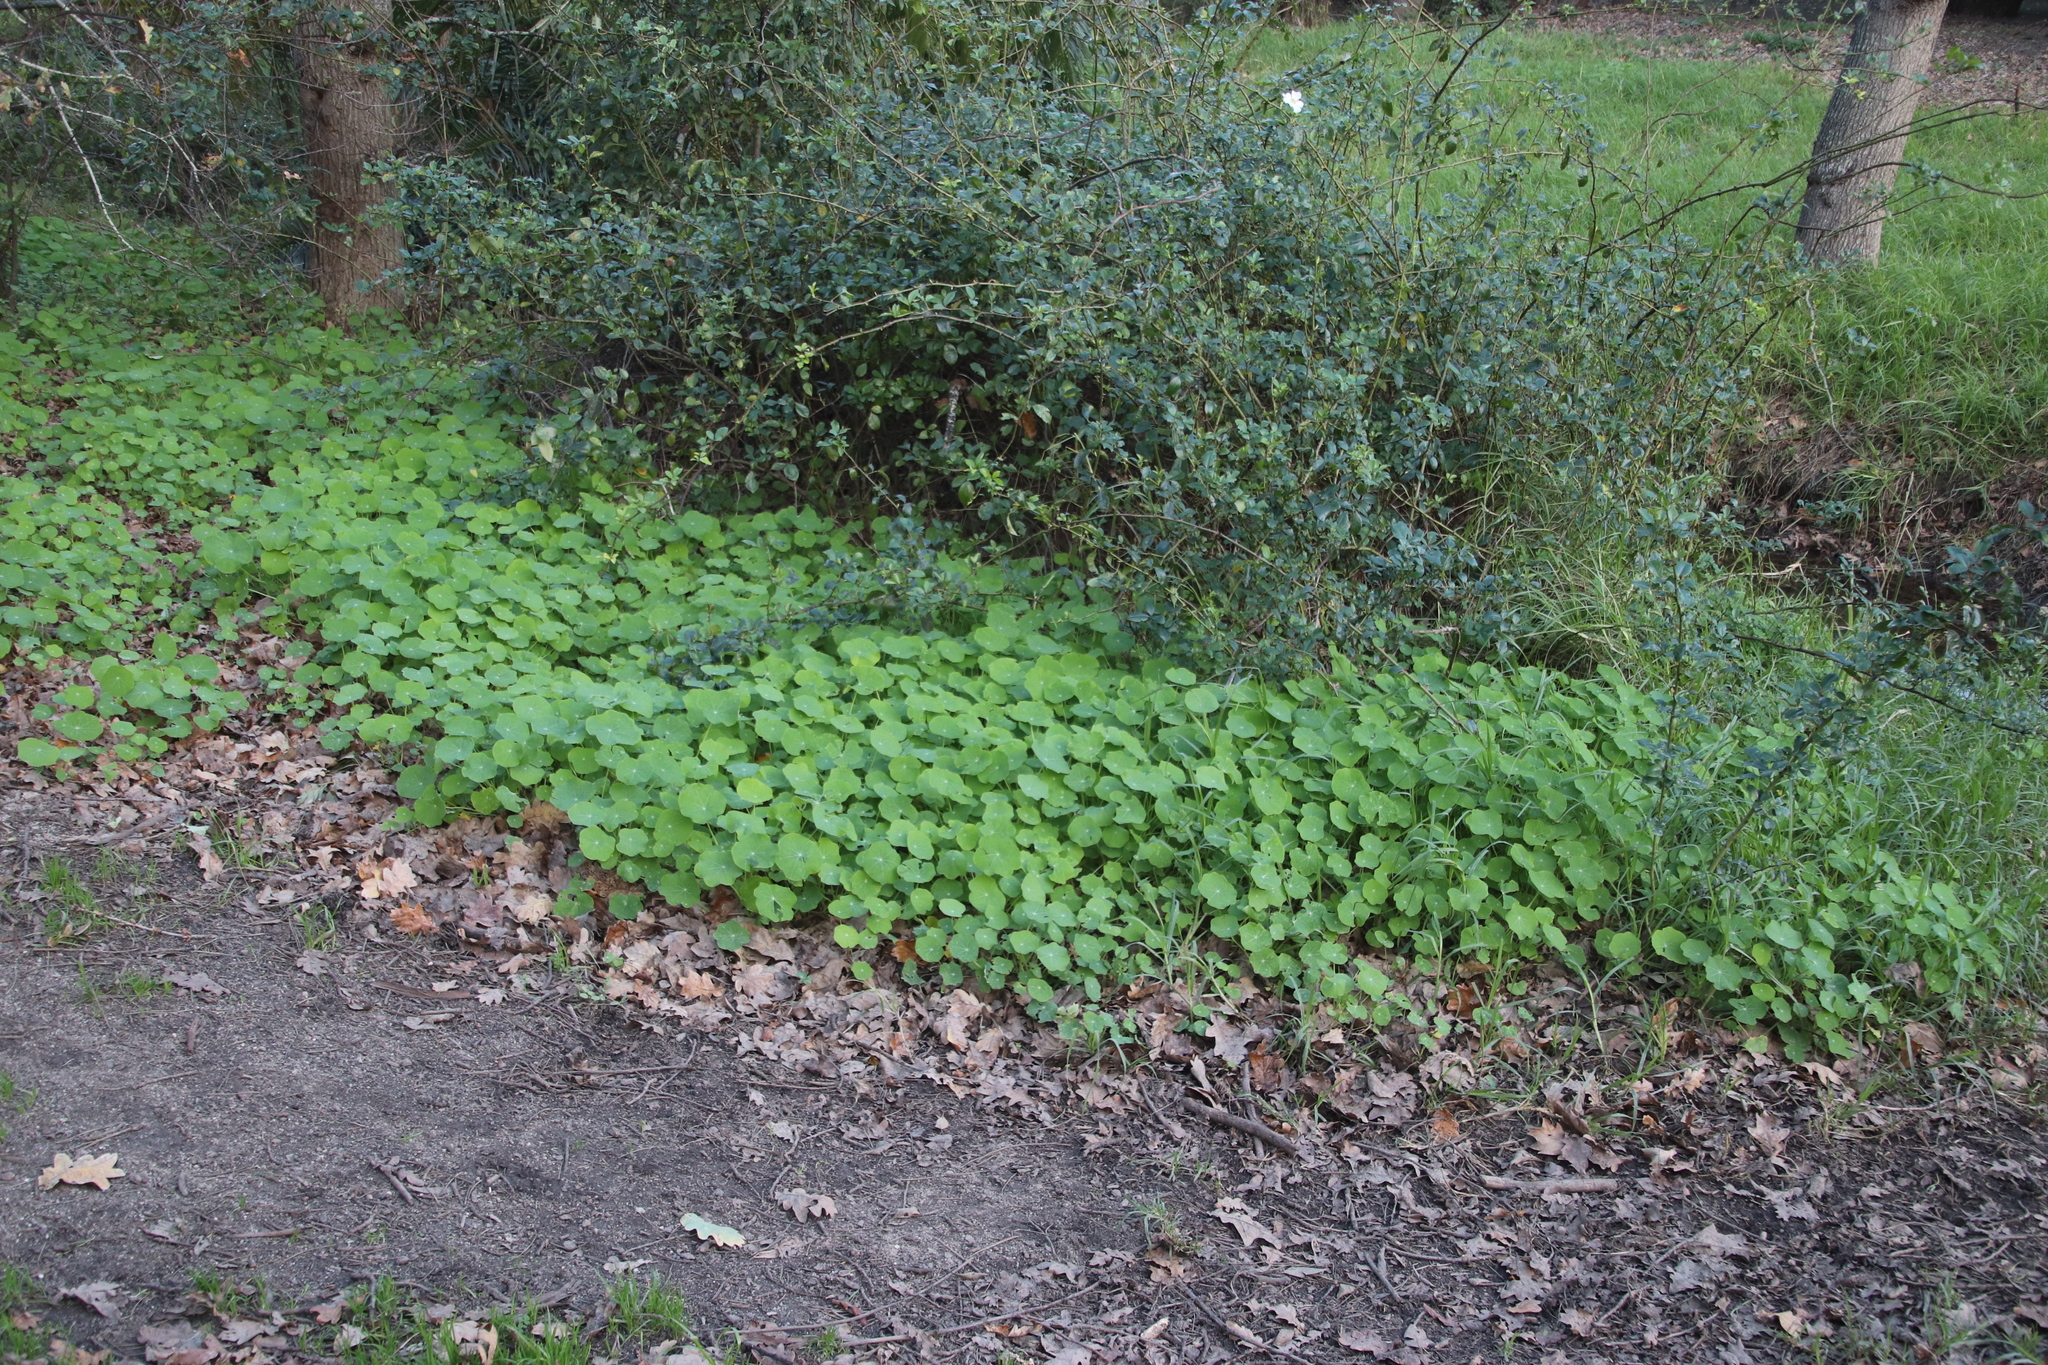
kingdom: Plantae
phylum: Tracheophyta
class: Magnoliopsida
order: Brassicales
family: Tropaeolaceae
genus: Tropaeolum
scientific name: Tropaeolum majus
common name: Nasturtium
